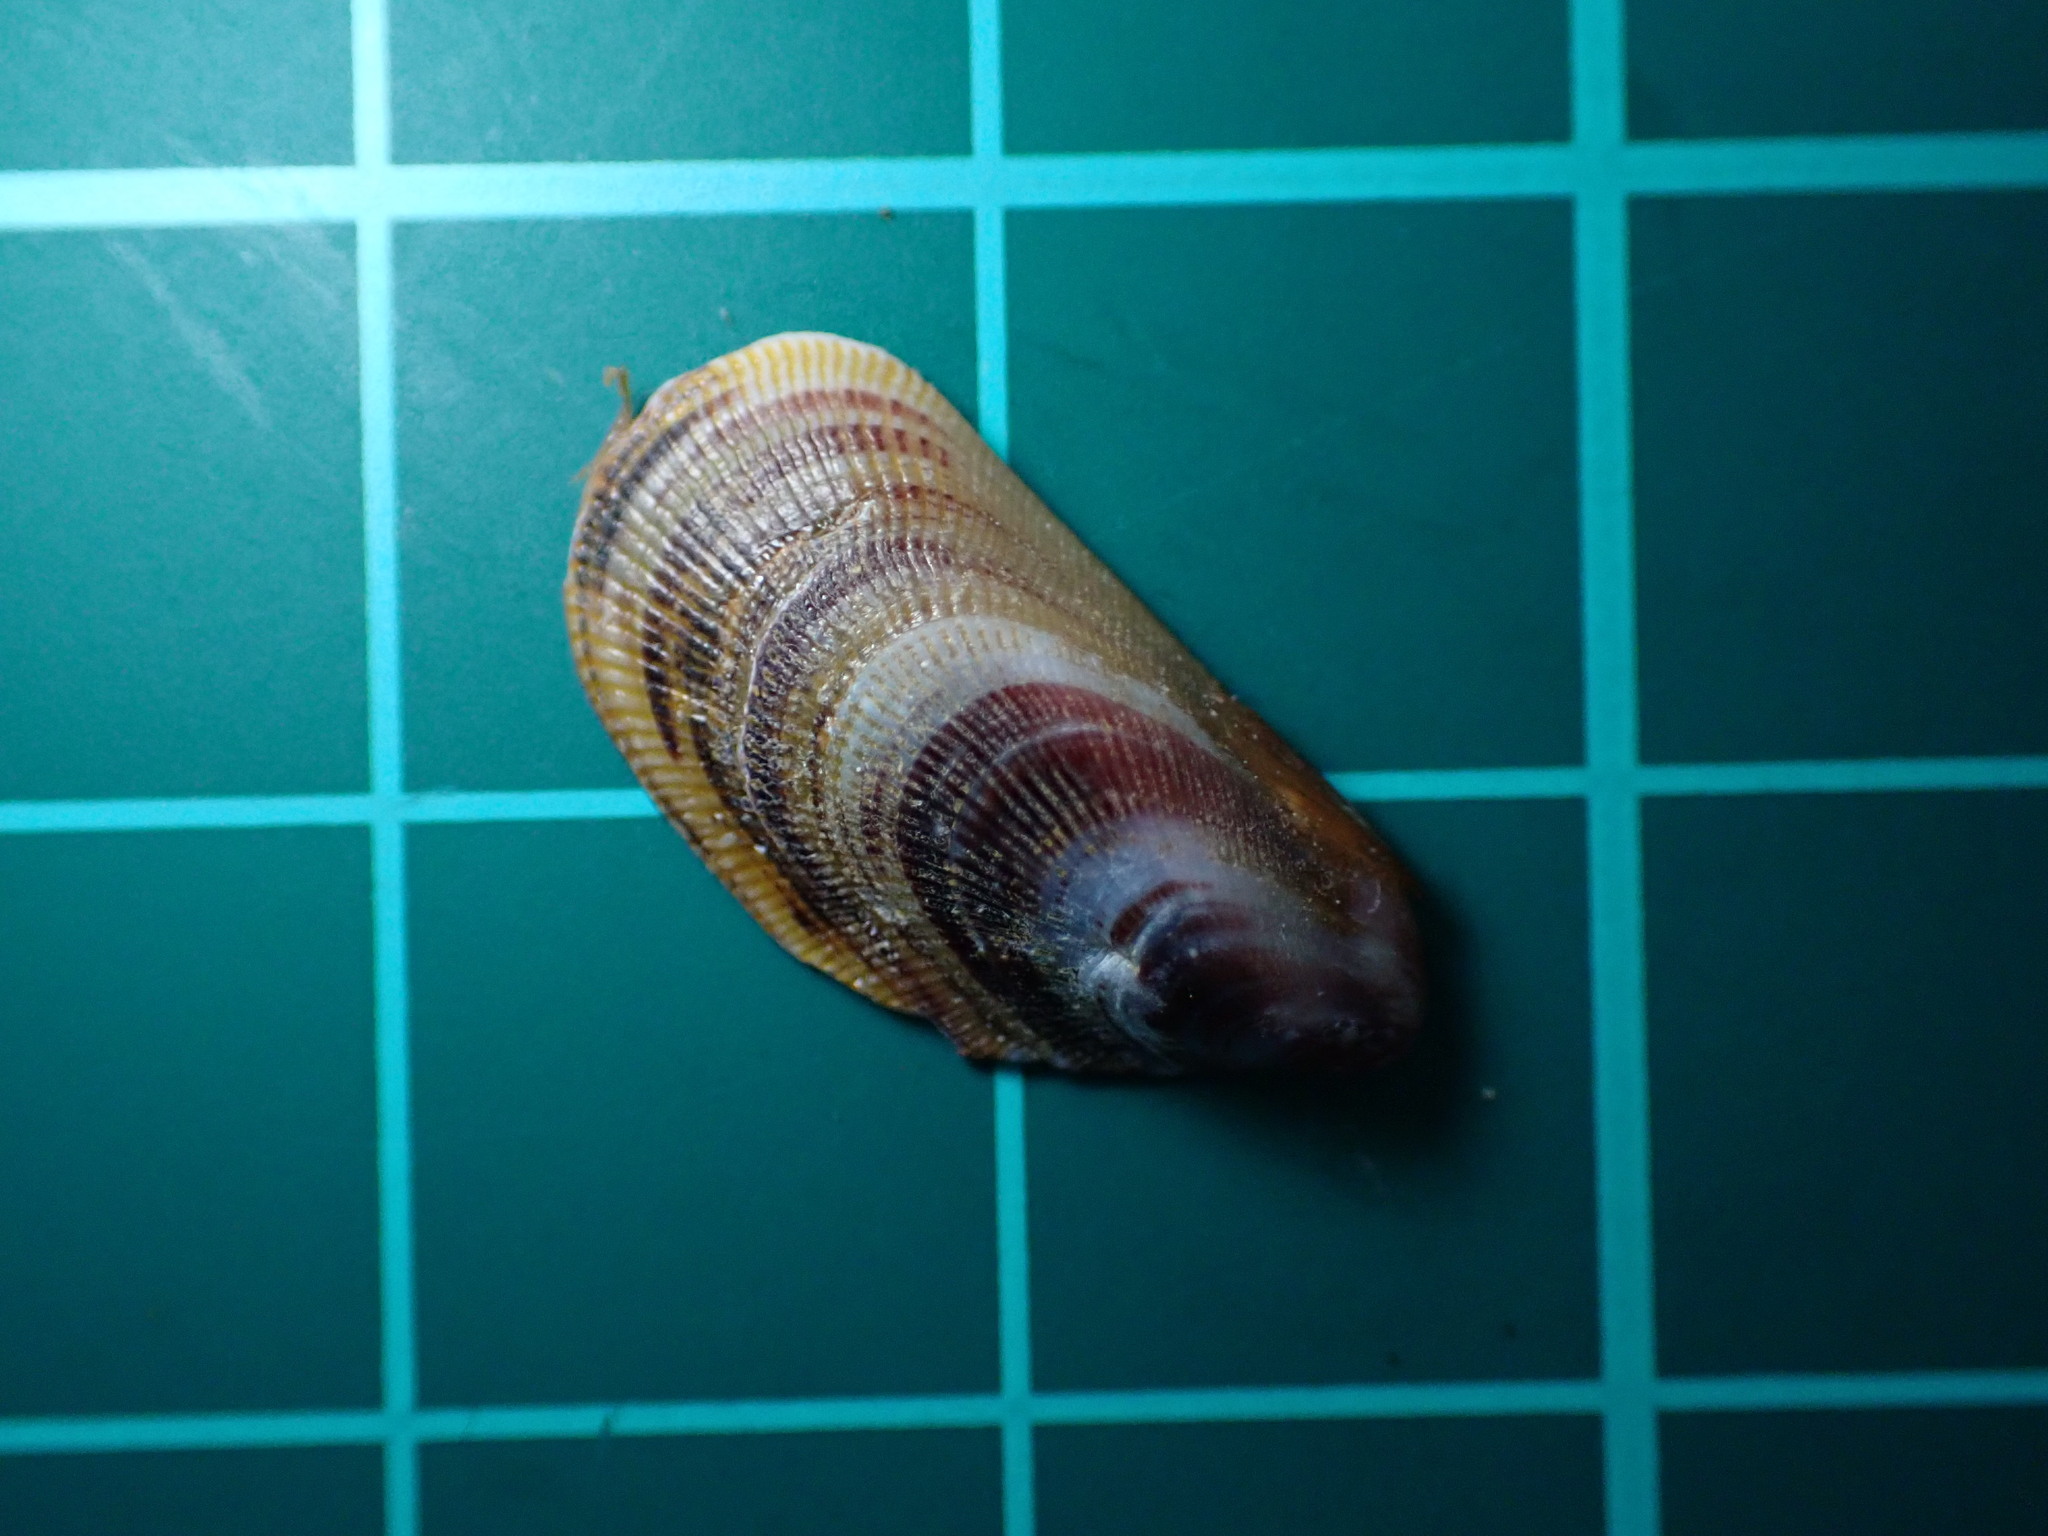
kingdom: Animalia
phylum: Mollusca
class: Bivalvia
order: Mytilida
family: Mytilidae
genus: Brachidontes
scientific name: Brachidontes crebristriatus
